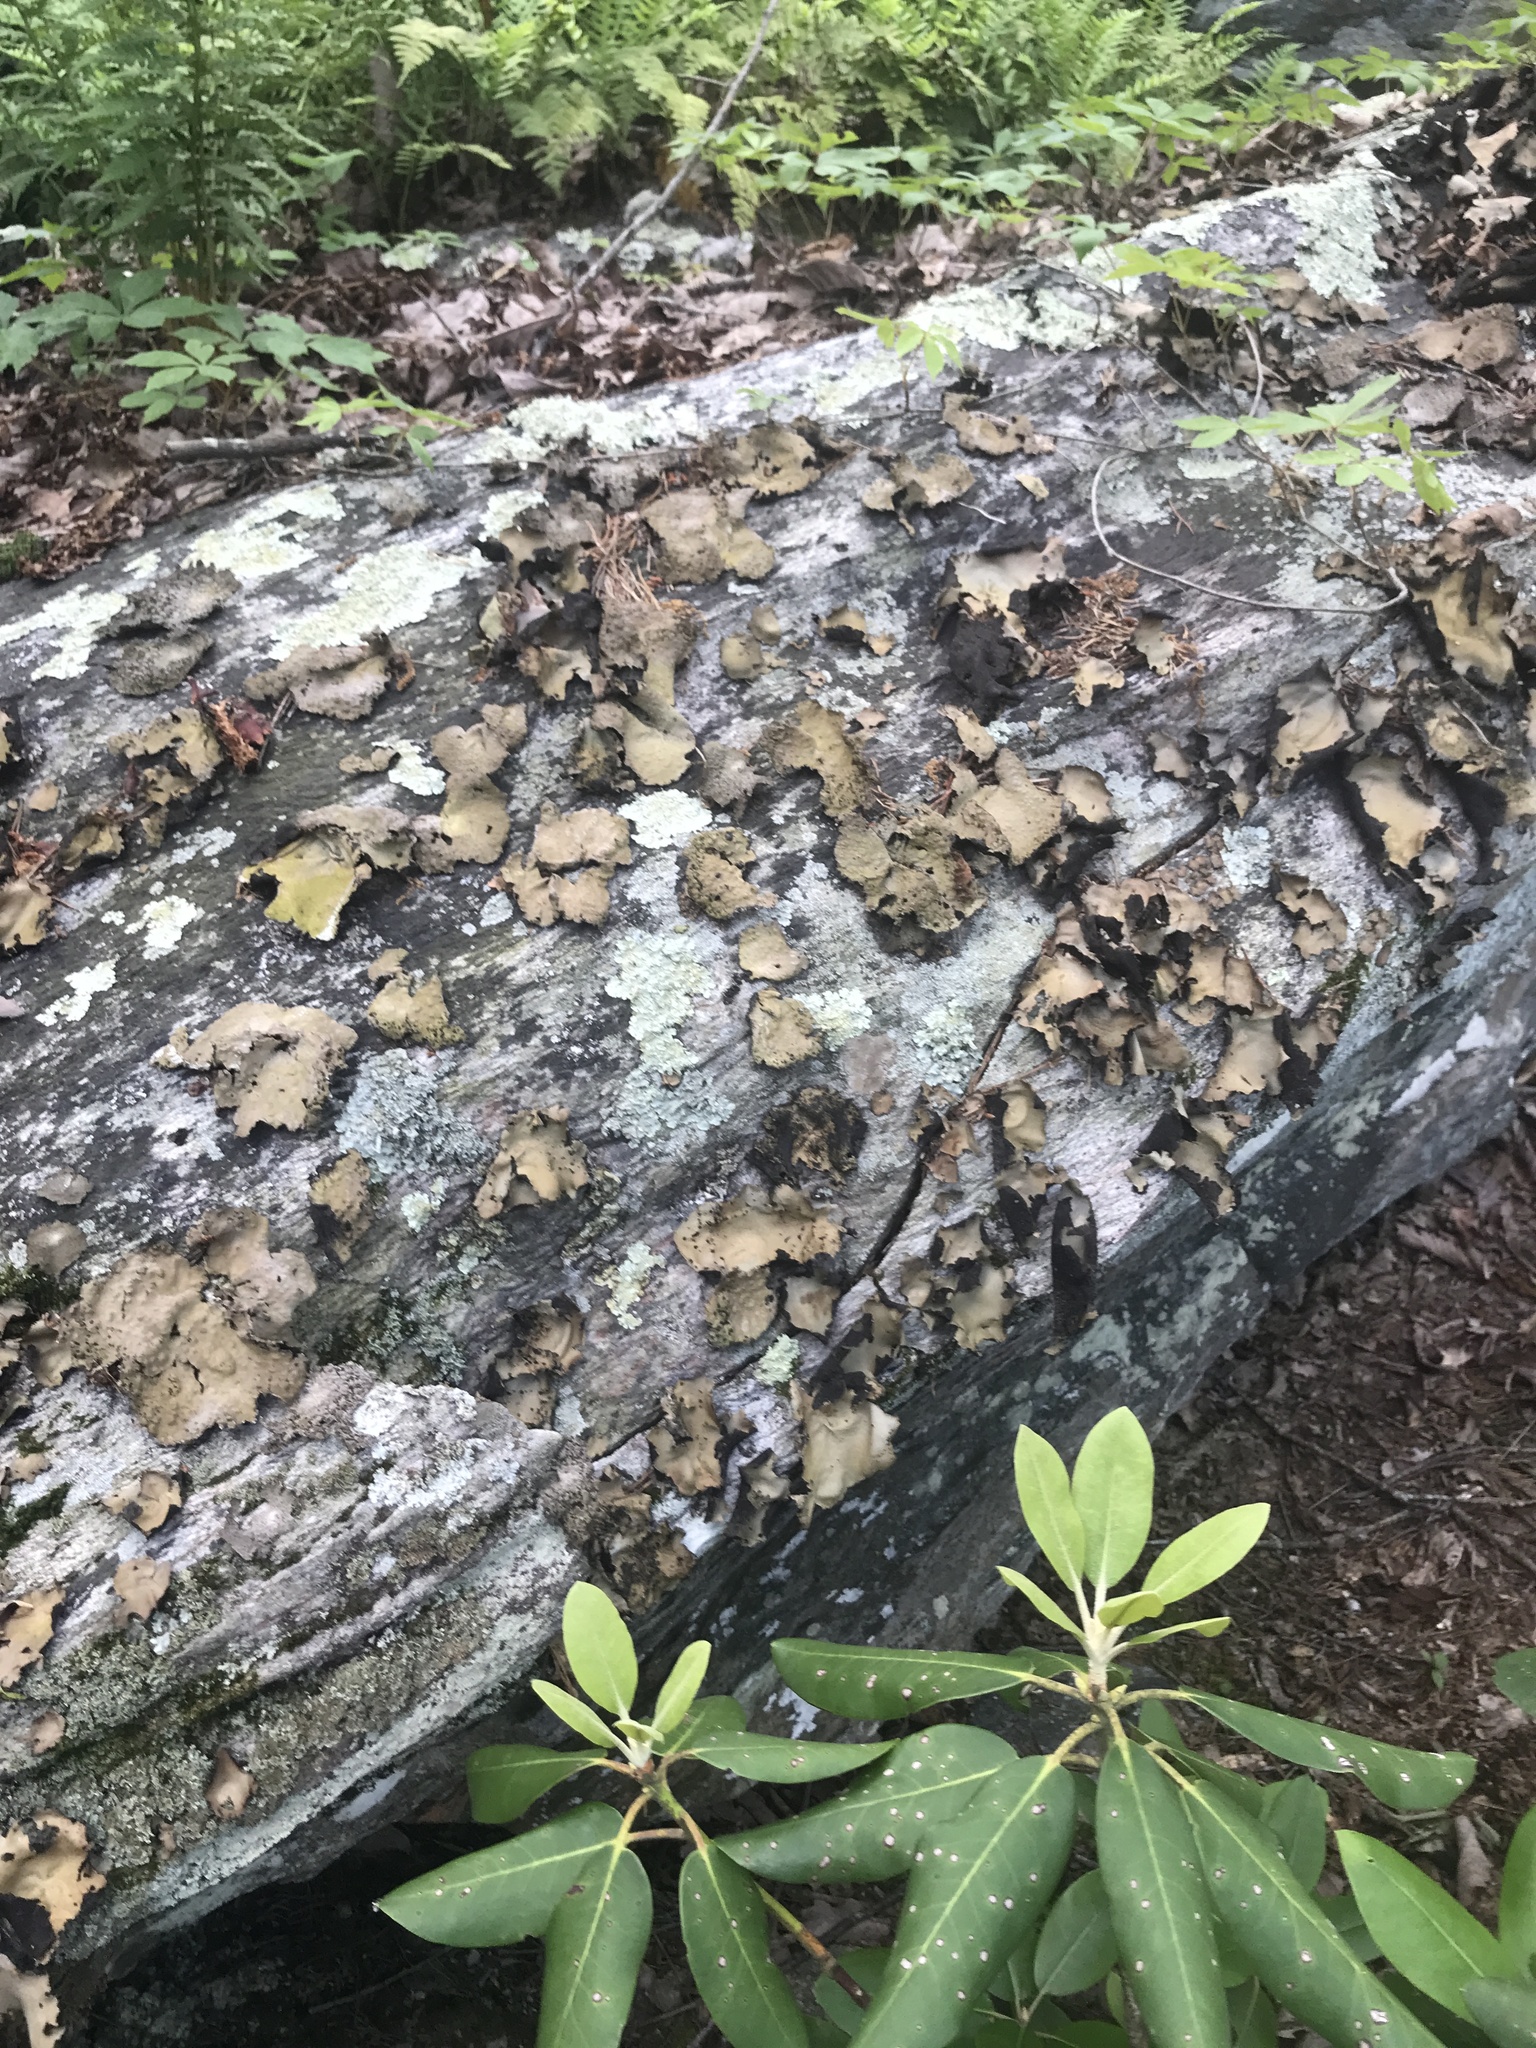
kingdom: Fungi
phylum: Ascomycota
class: Lecanoromycetes
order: Umbilicariales
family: Umbilicariaceae
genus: Umbilicaria
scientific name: Umbilicaria mammulata
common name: Smooth rock tripe
